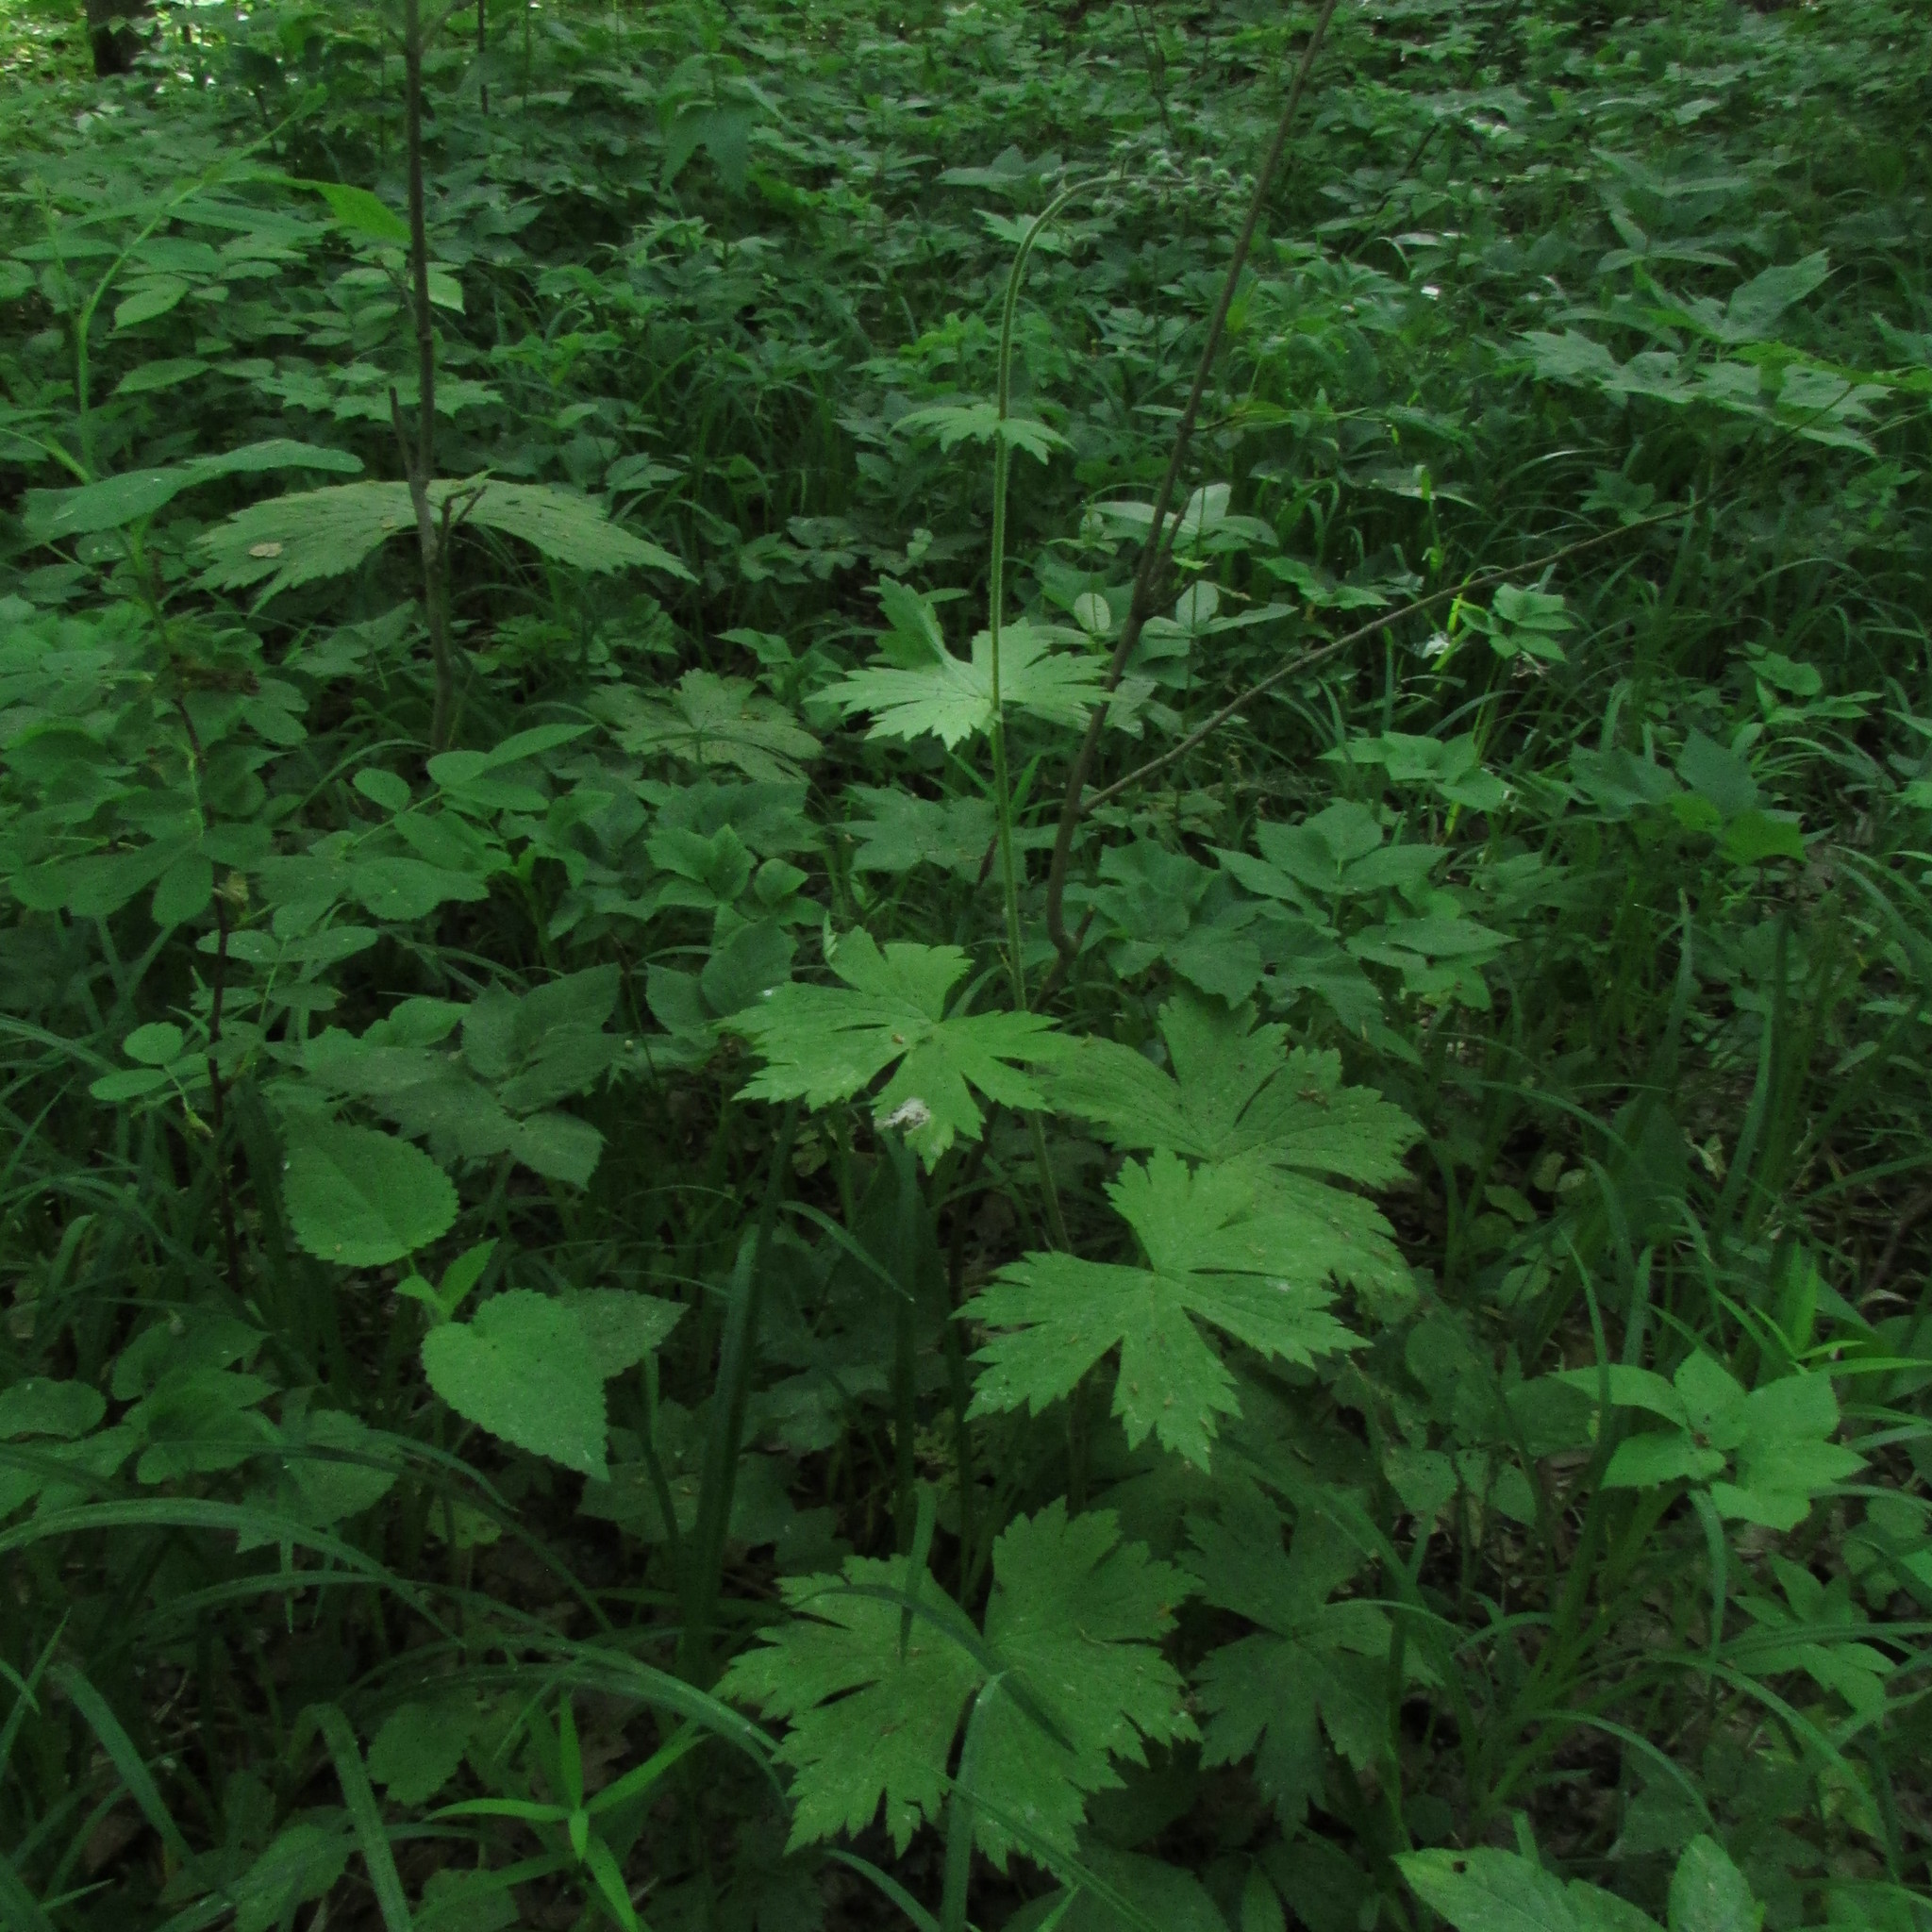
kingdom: Plantae
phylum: Tracheophyta
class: Magnoliopsida
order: Ranunculales
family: Ranunculaceae
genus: Aconitum
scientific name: Aconitum septentrionale
